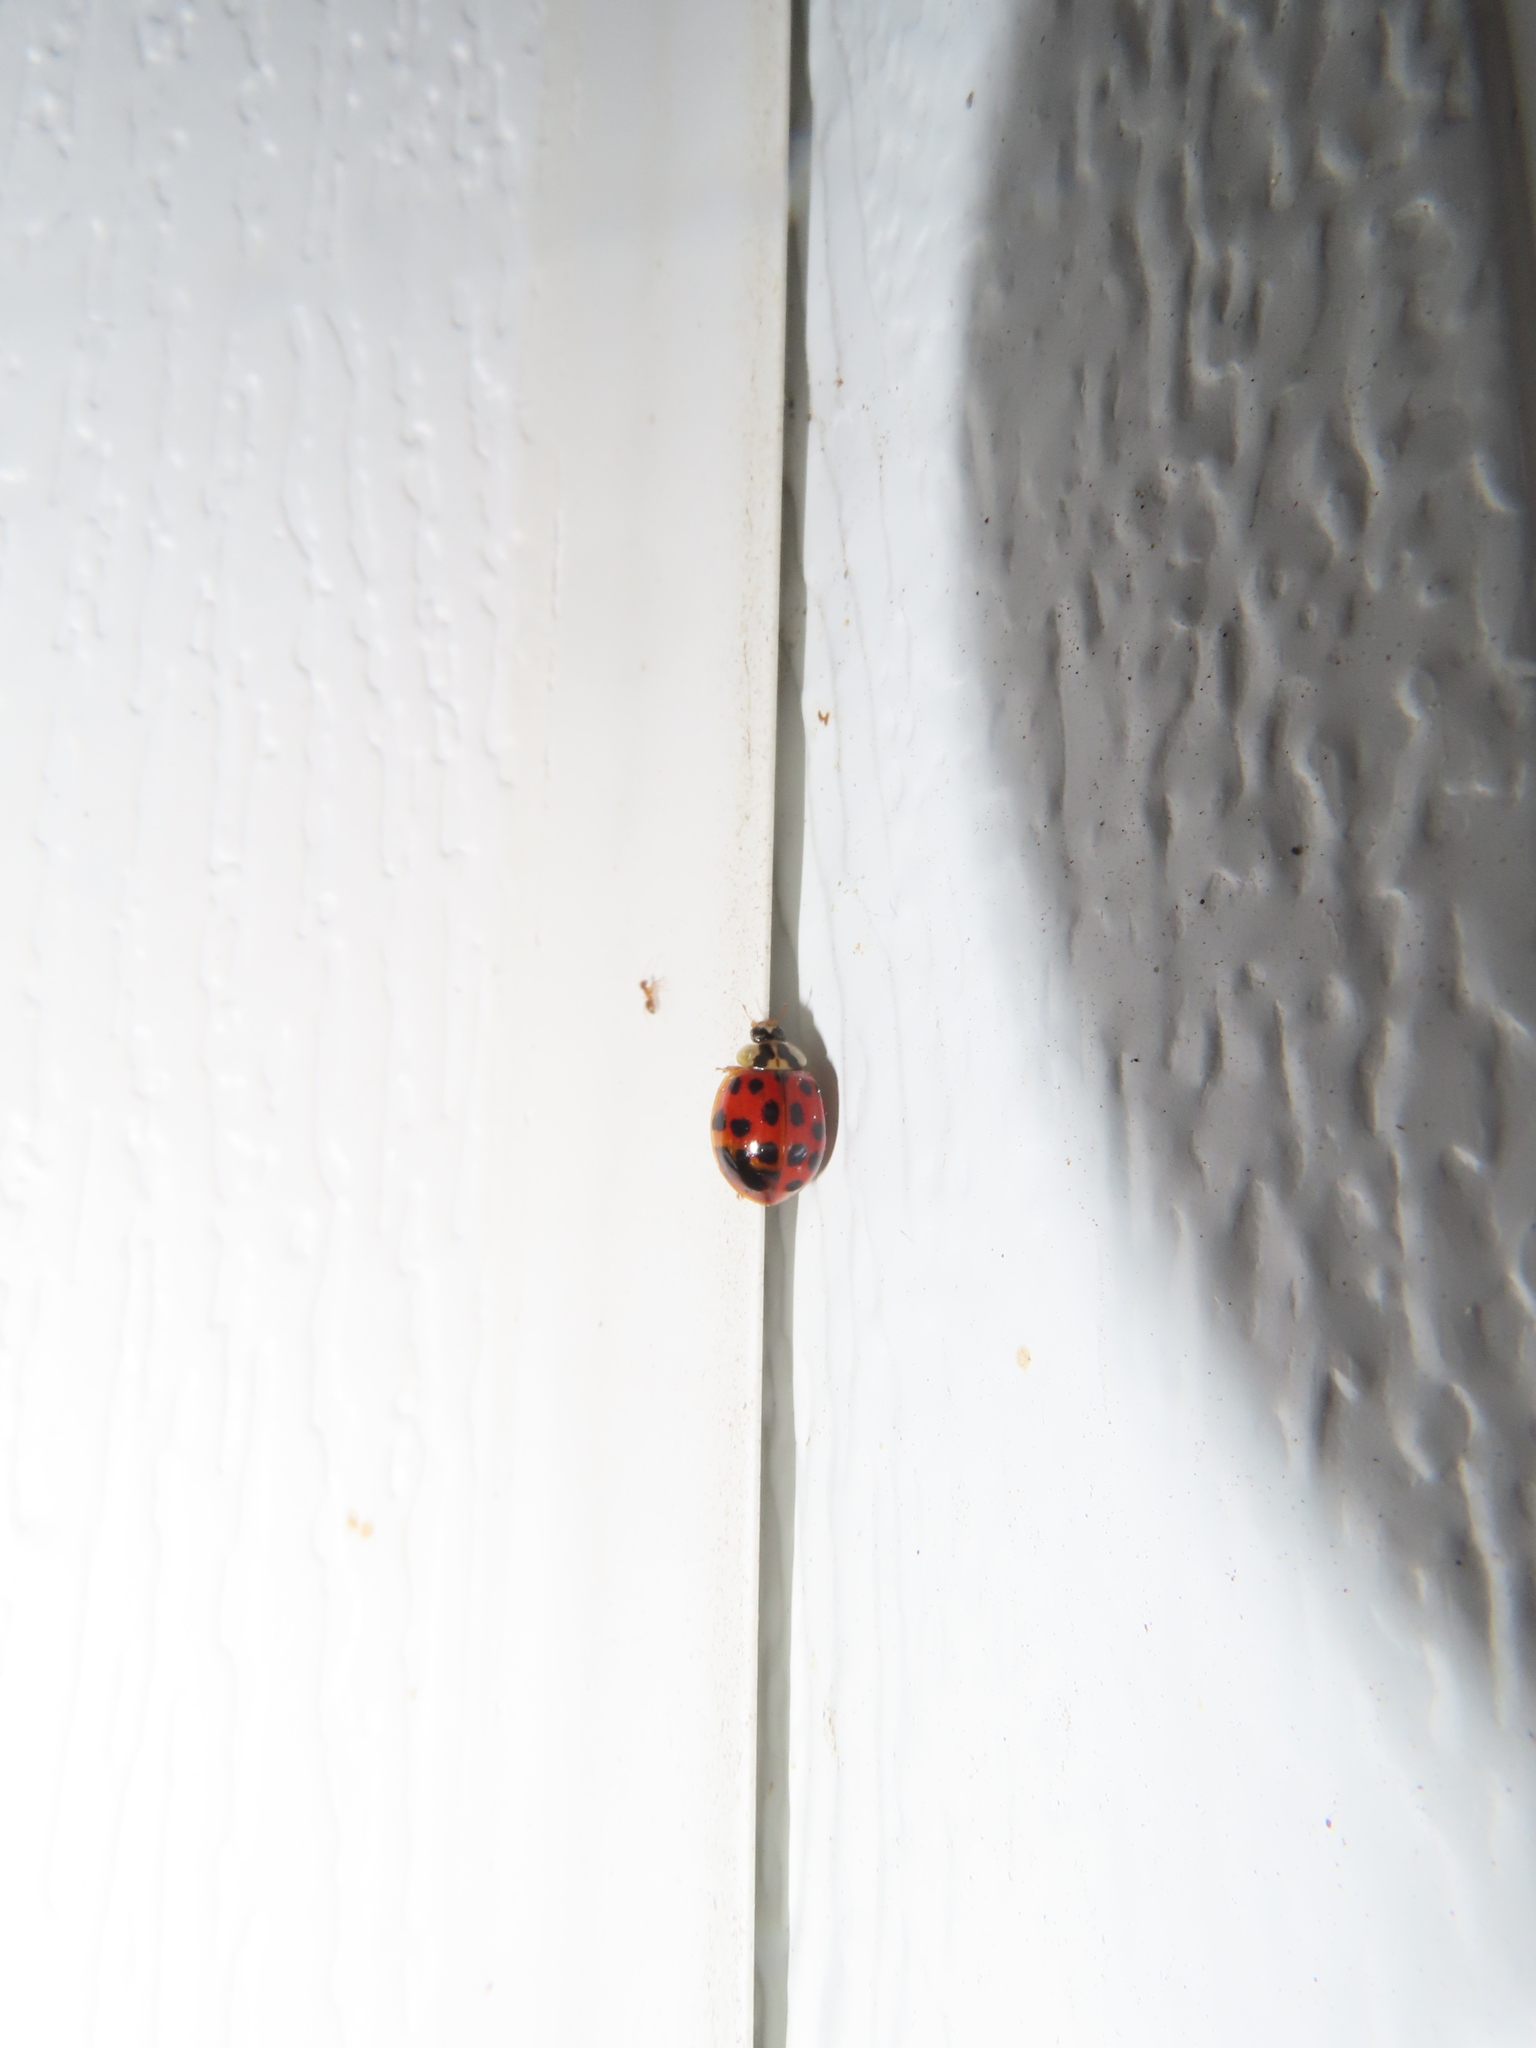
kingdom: Animalia
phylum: Arthropoda
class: Insecta
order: Coleoptera
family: Coccinellidae
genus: Harmonia
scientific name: Harmonia axyridis
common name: Harlequin ladybird
